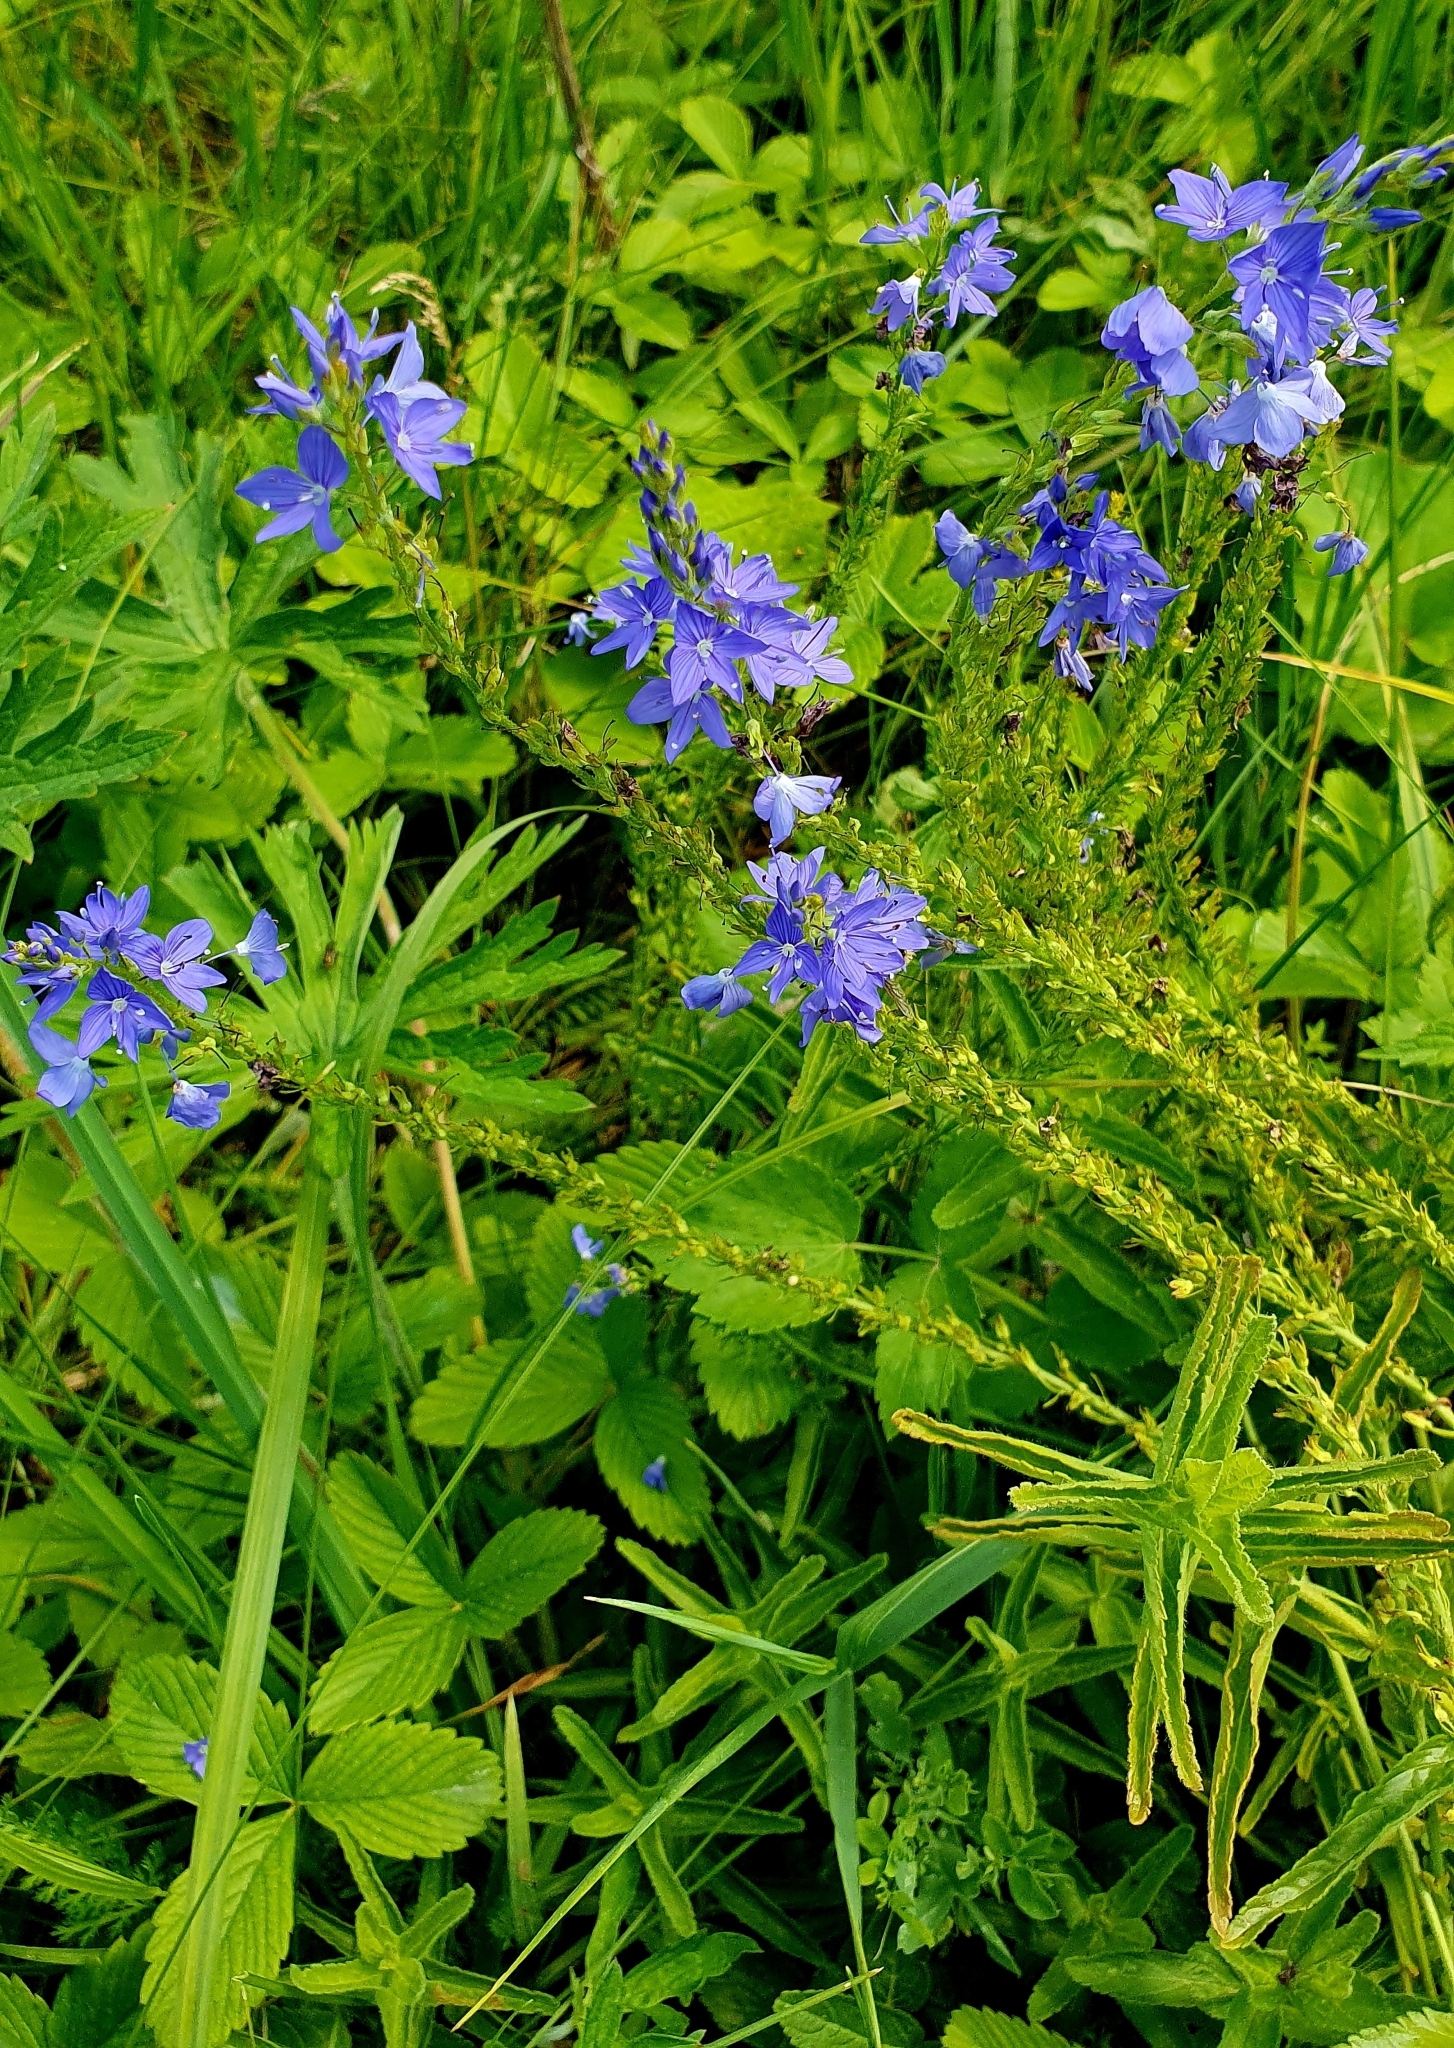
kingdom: Plantae
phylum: Tracheophyta
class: Magnoliopsida
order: Lamiales
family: Plantaginaceae
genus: Veronica
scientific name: Veronica teucrium
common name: Large speedwell
